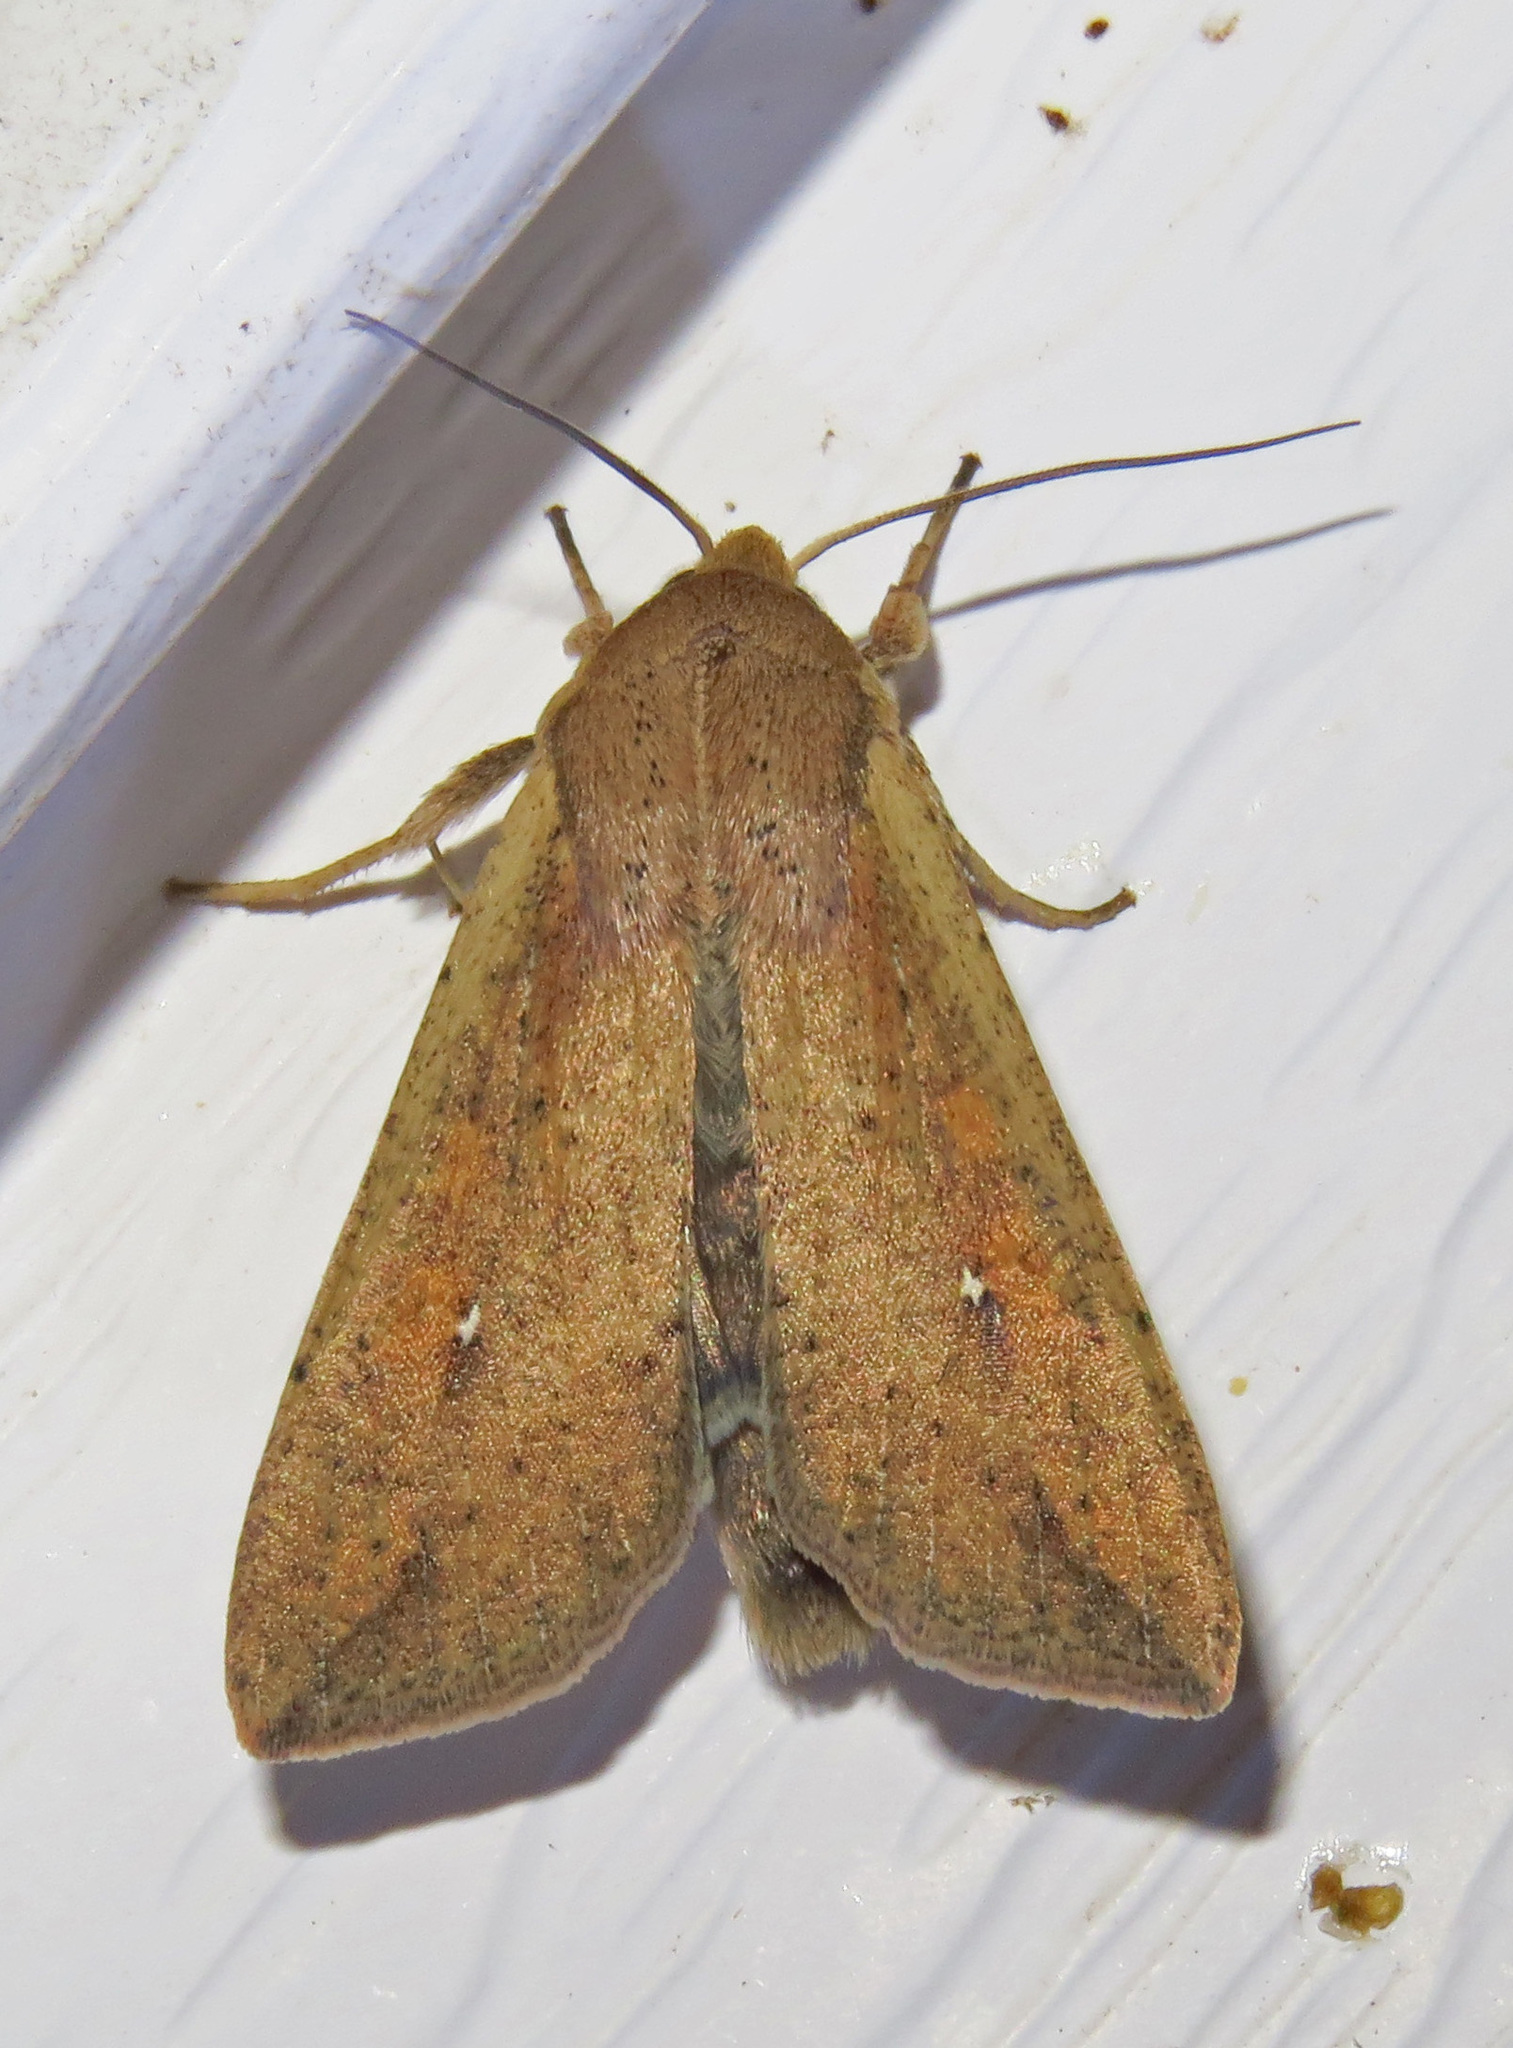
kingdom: Animalia
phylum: Arthropoda
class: Insecta
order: Lepidoptera
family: Noctuidae
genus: Mythimna
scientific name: Mythimna unipuncta
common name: White-speck
